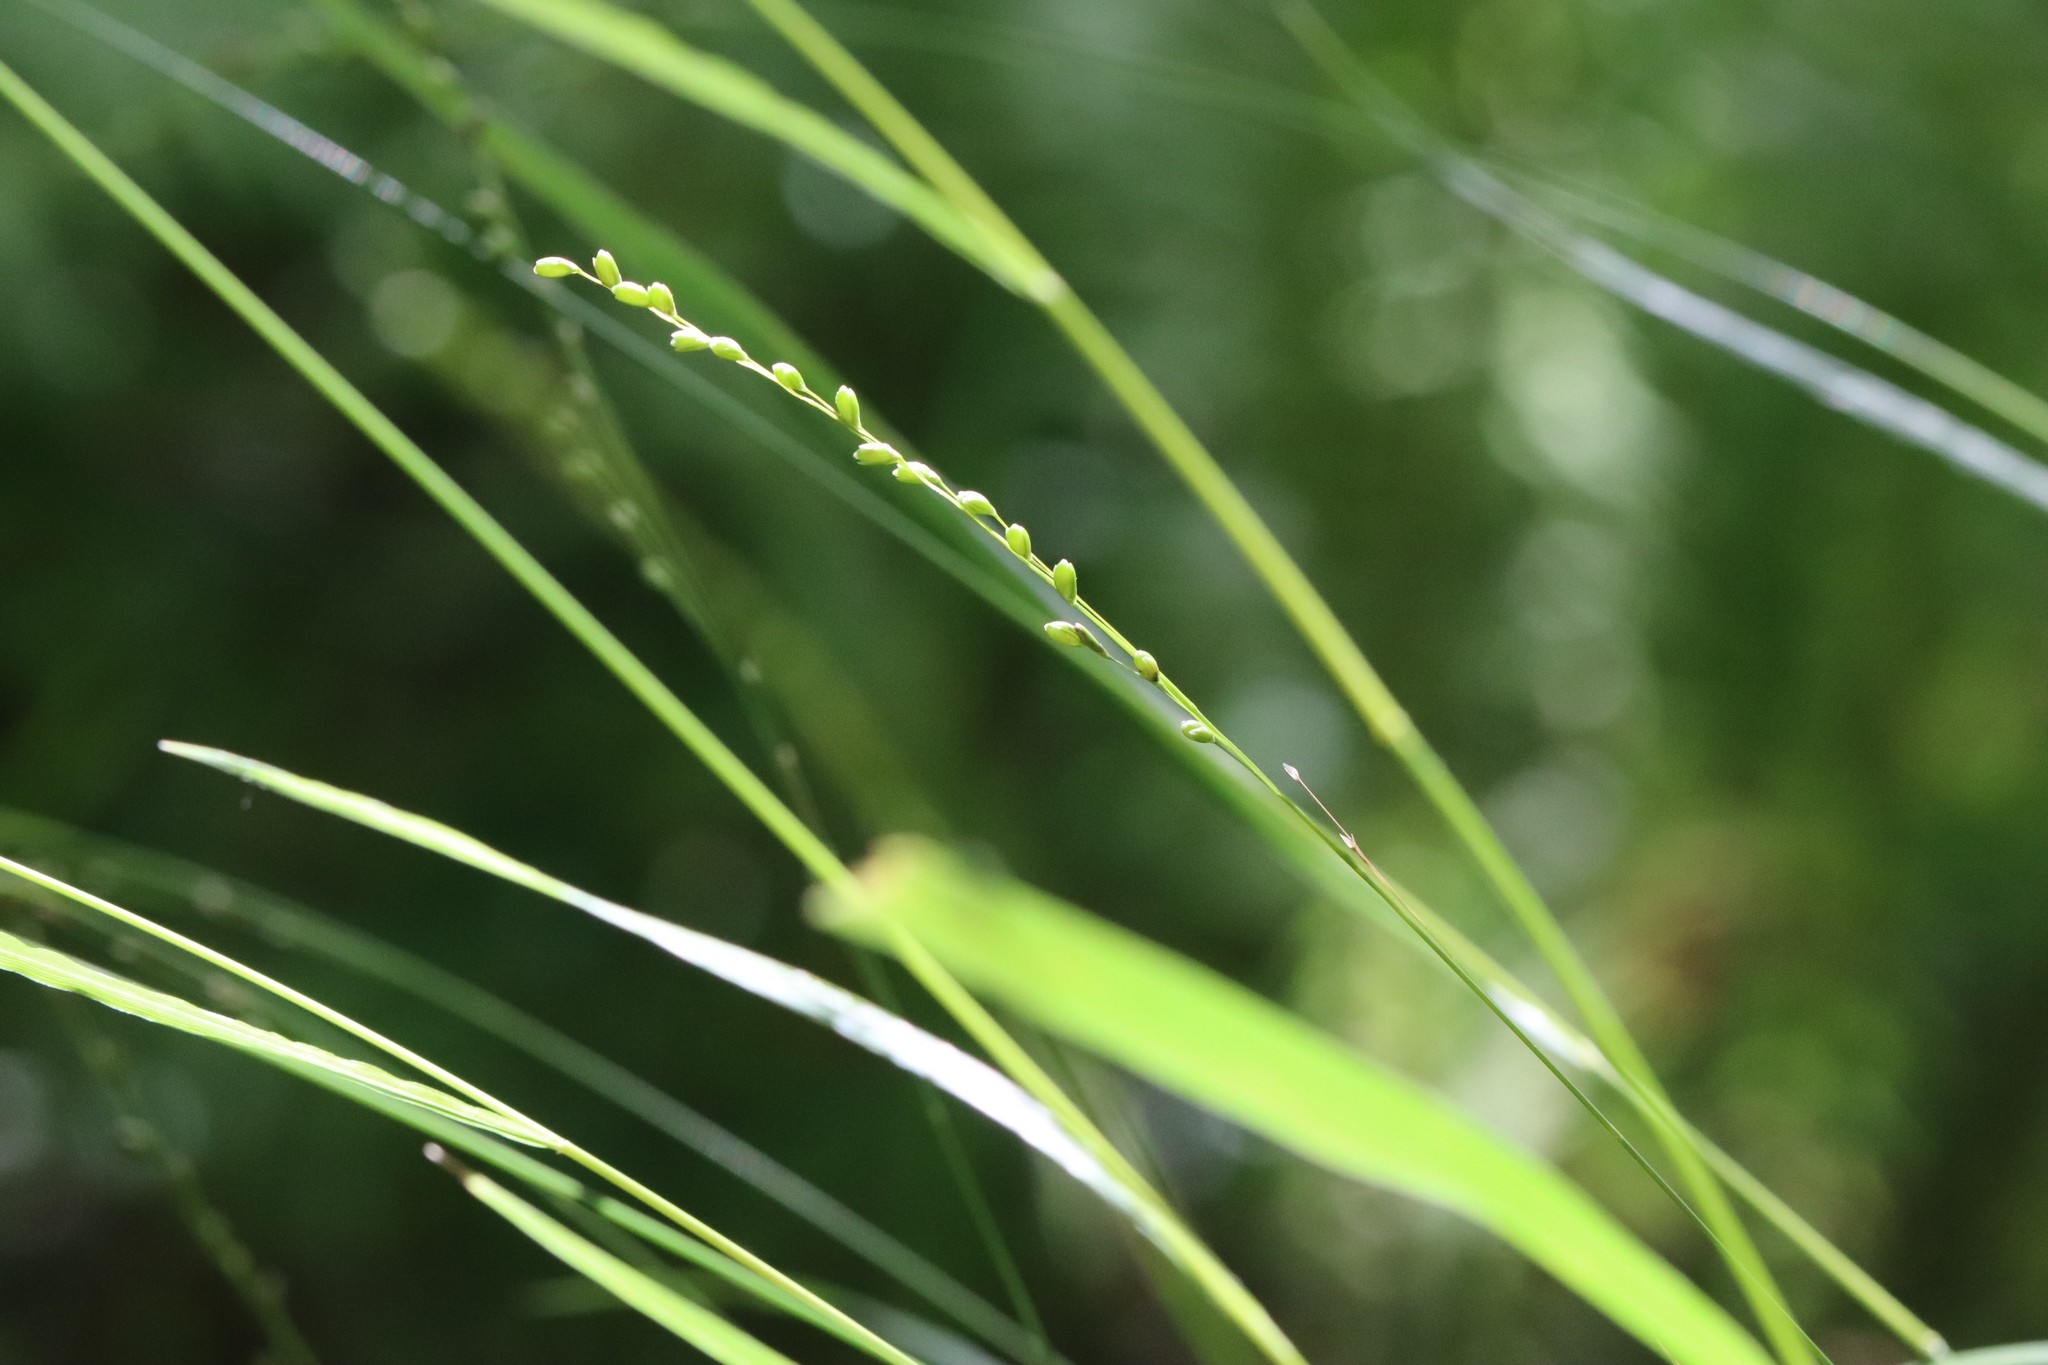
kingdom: Plantae
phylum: Tracheophyta
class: Liliopsida
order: Poales
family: Poaceae
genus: Diarrhena
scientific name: Diarrhena mandshurica
